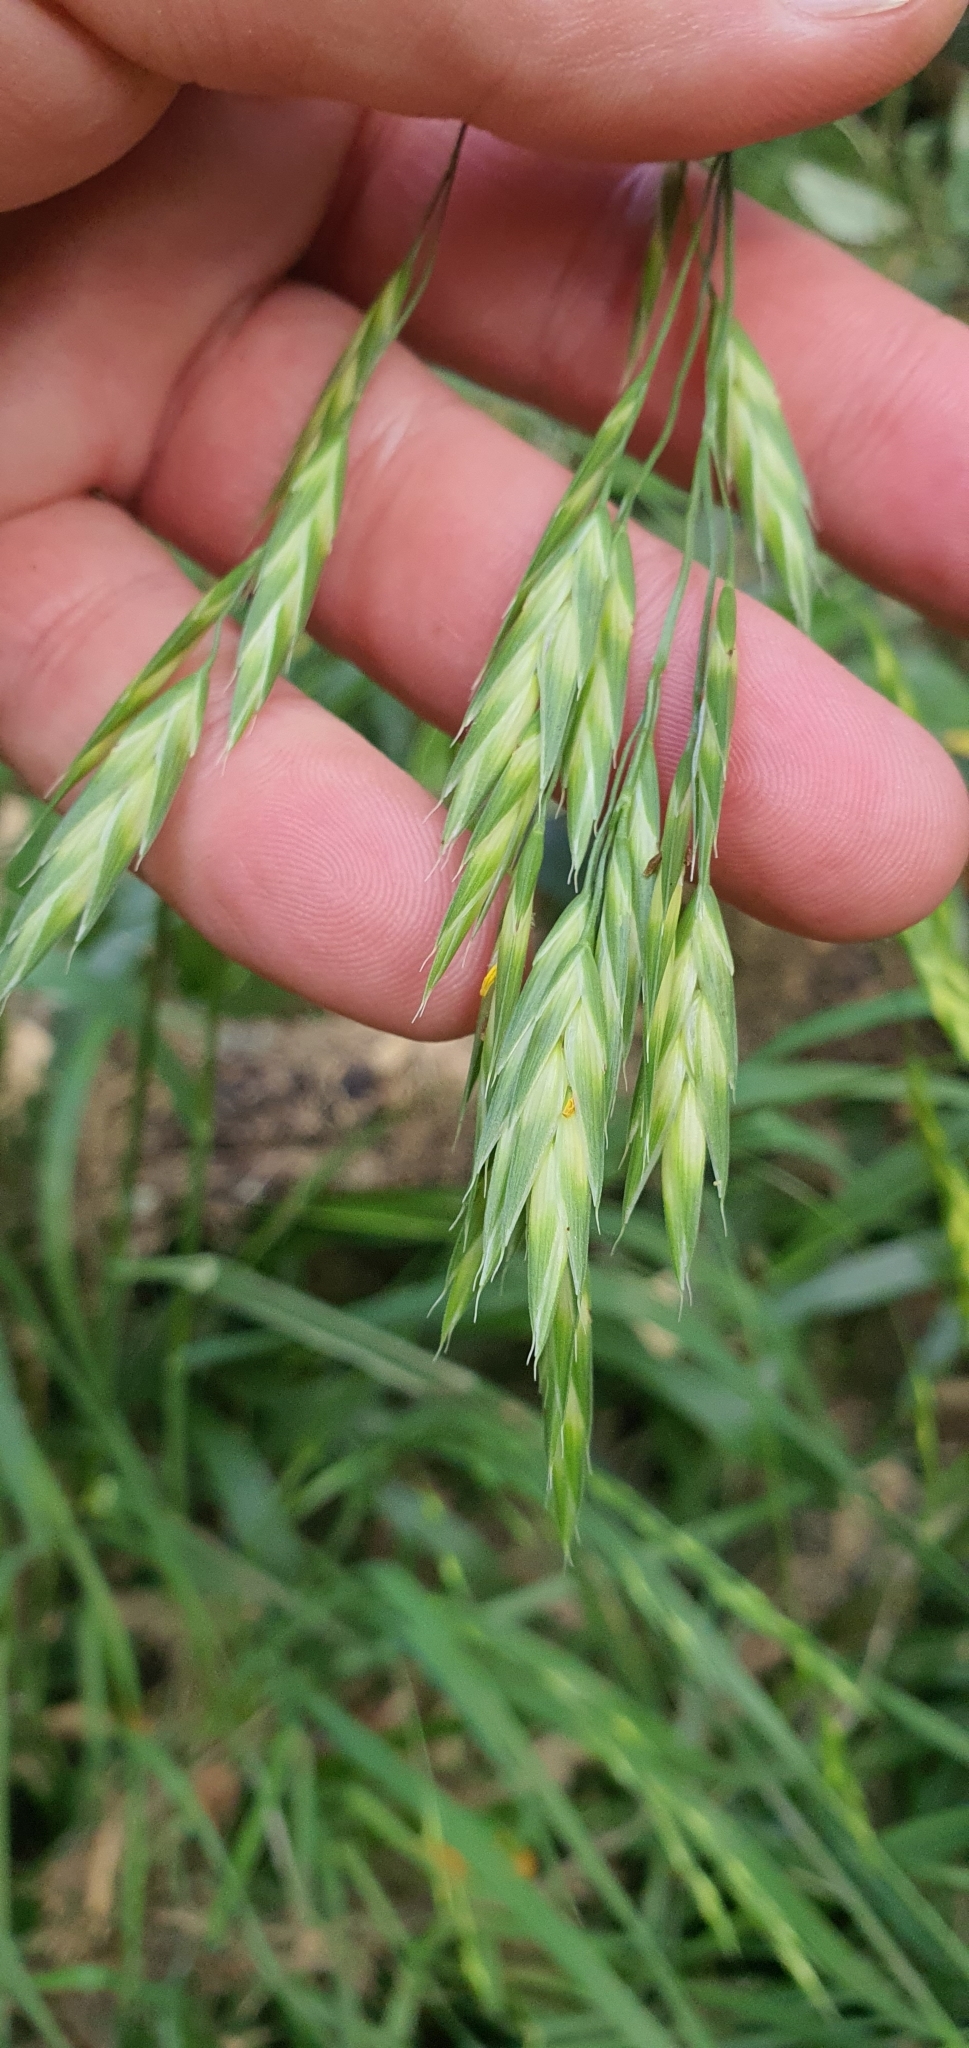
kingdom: Plantae
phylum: Tracheophyta
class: Liliopsida
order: Poales
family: Poaceae
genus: Bromus
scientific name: Bromus catharticus
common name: Rescuegrass
